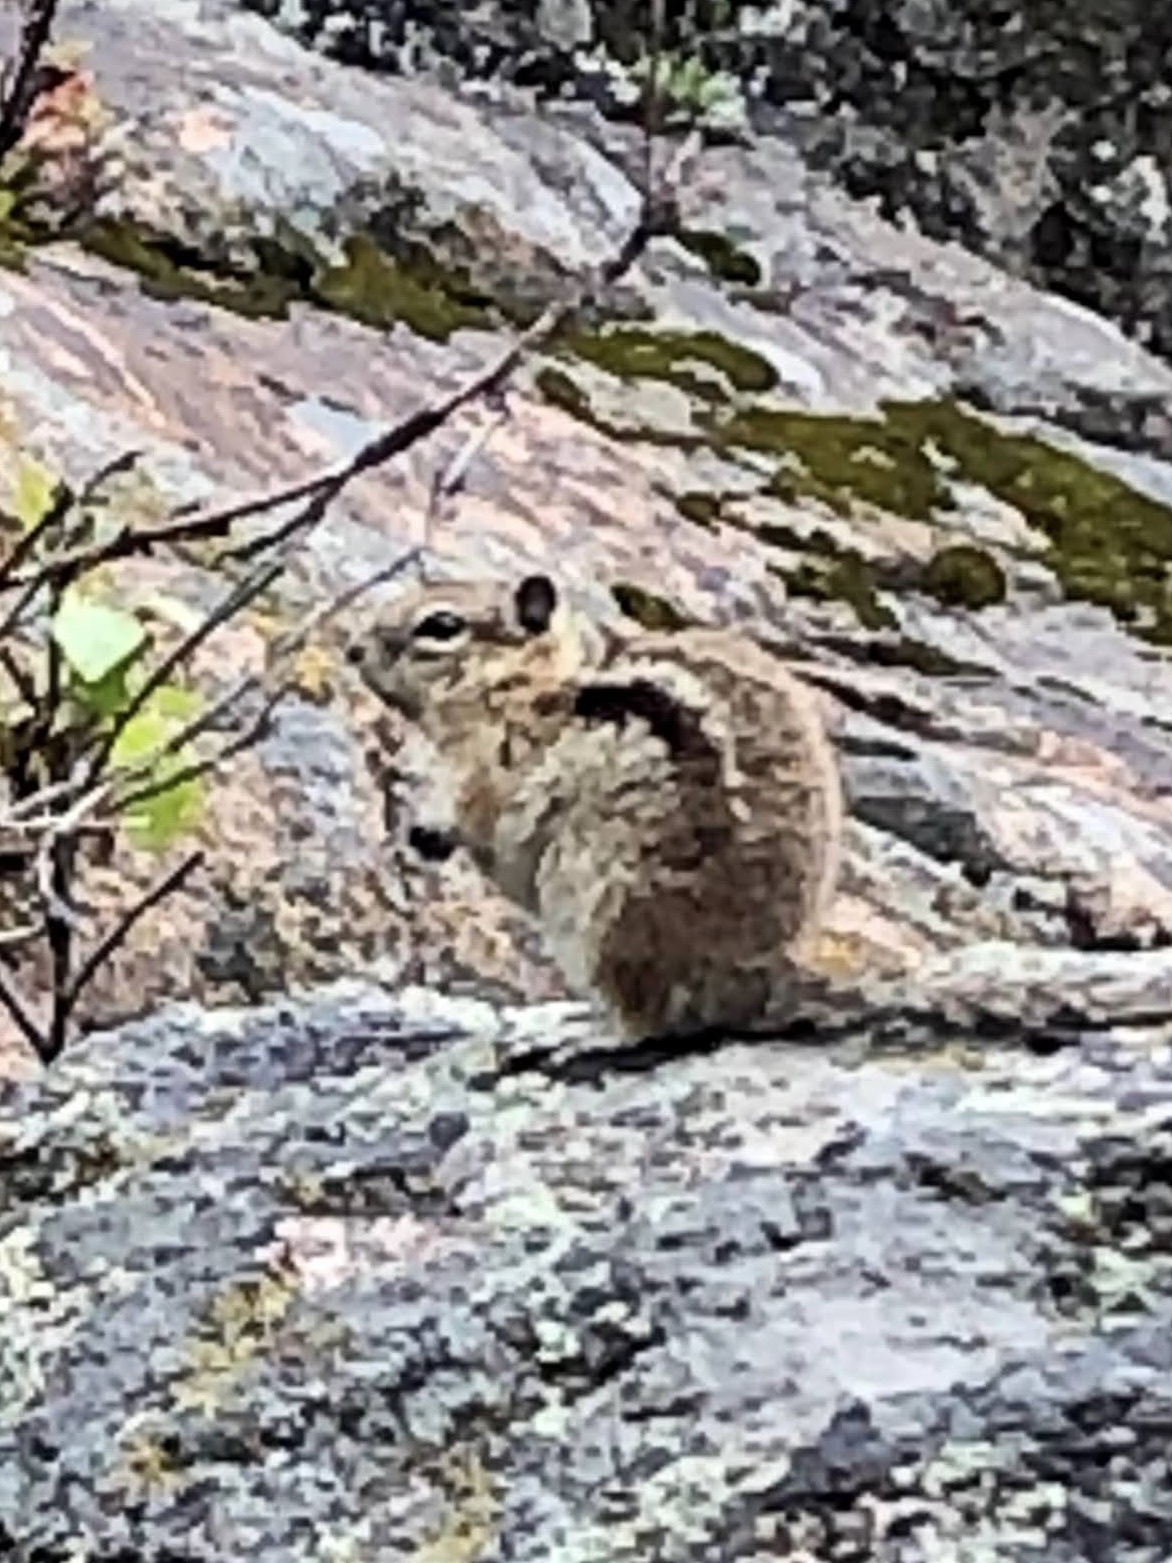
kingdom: Animalia
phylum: Chordata
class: Mammalia
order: Rodentia
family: Sciuridae
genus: Callospermophilus
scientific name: Callospermophilus lateralis
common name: Golden-mantled ground squirrel
